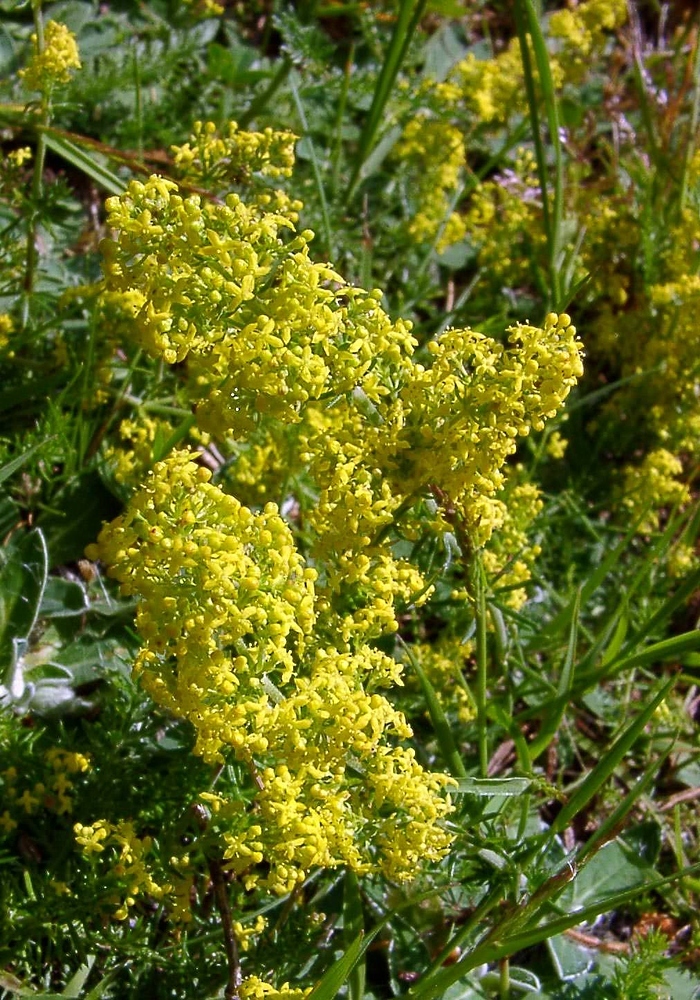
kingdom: Plantae
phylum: Tracheophyta
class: Magnoliopsida
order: Gentianales
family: Rubiaceae
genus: Galium
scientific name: Galium verum
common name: Lady's bedstraw
